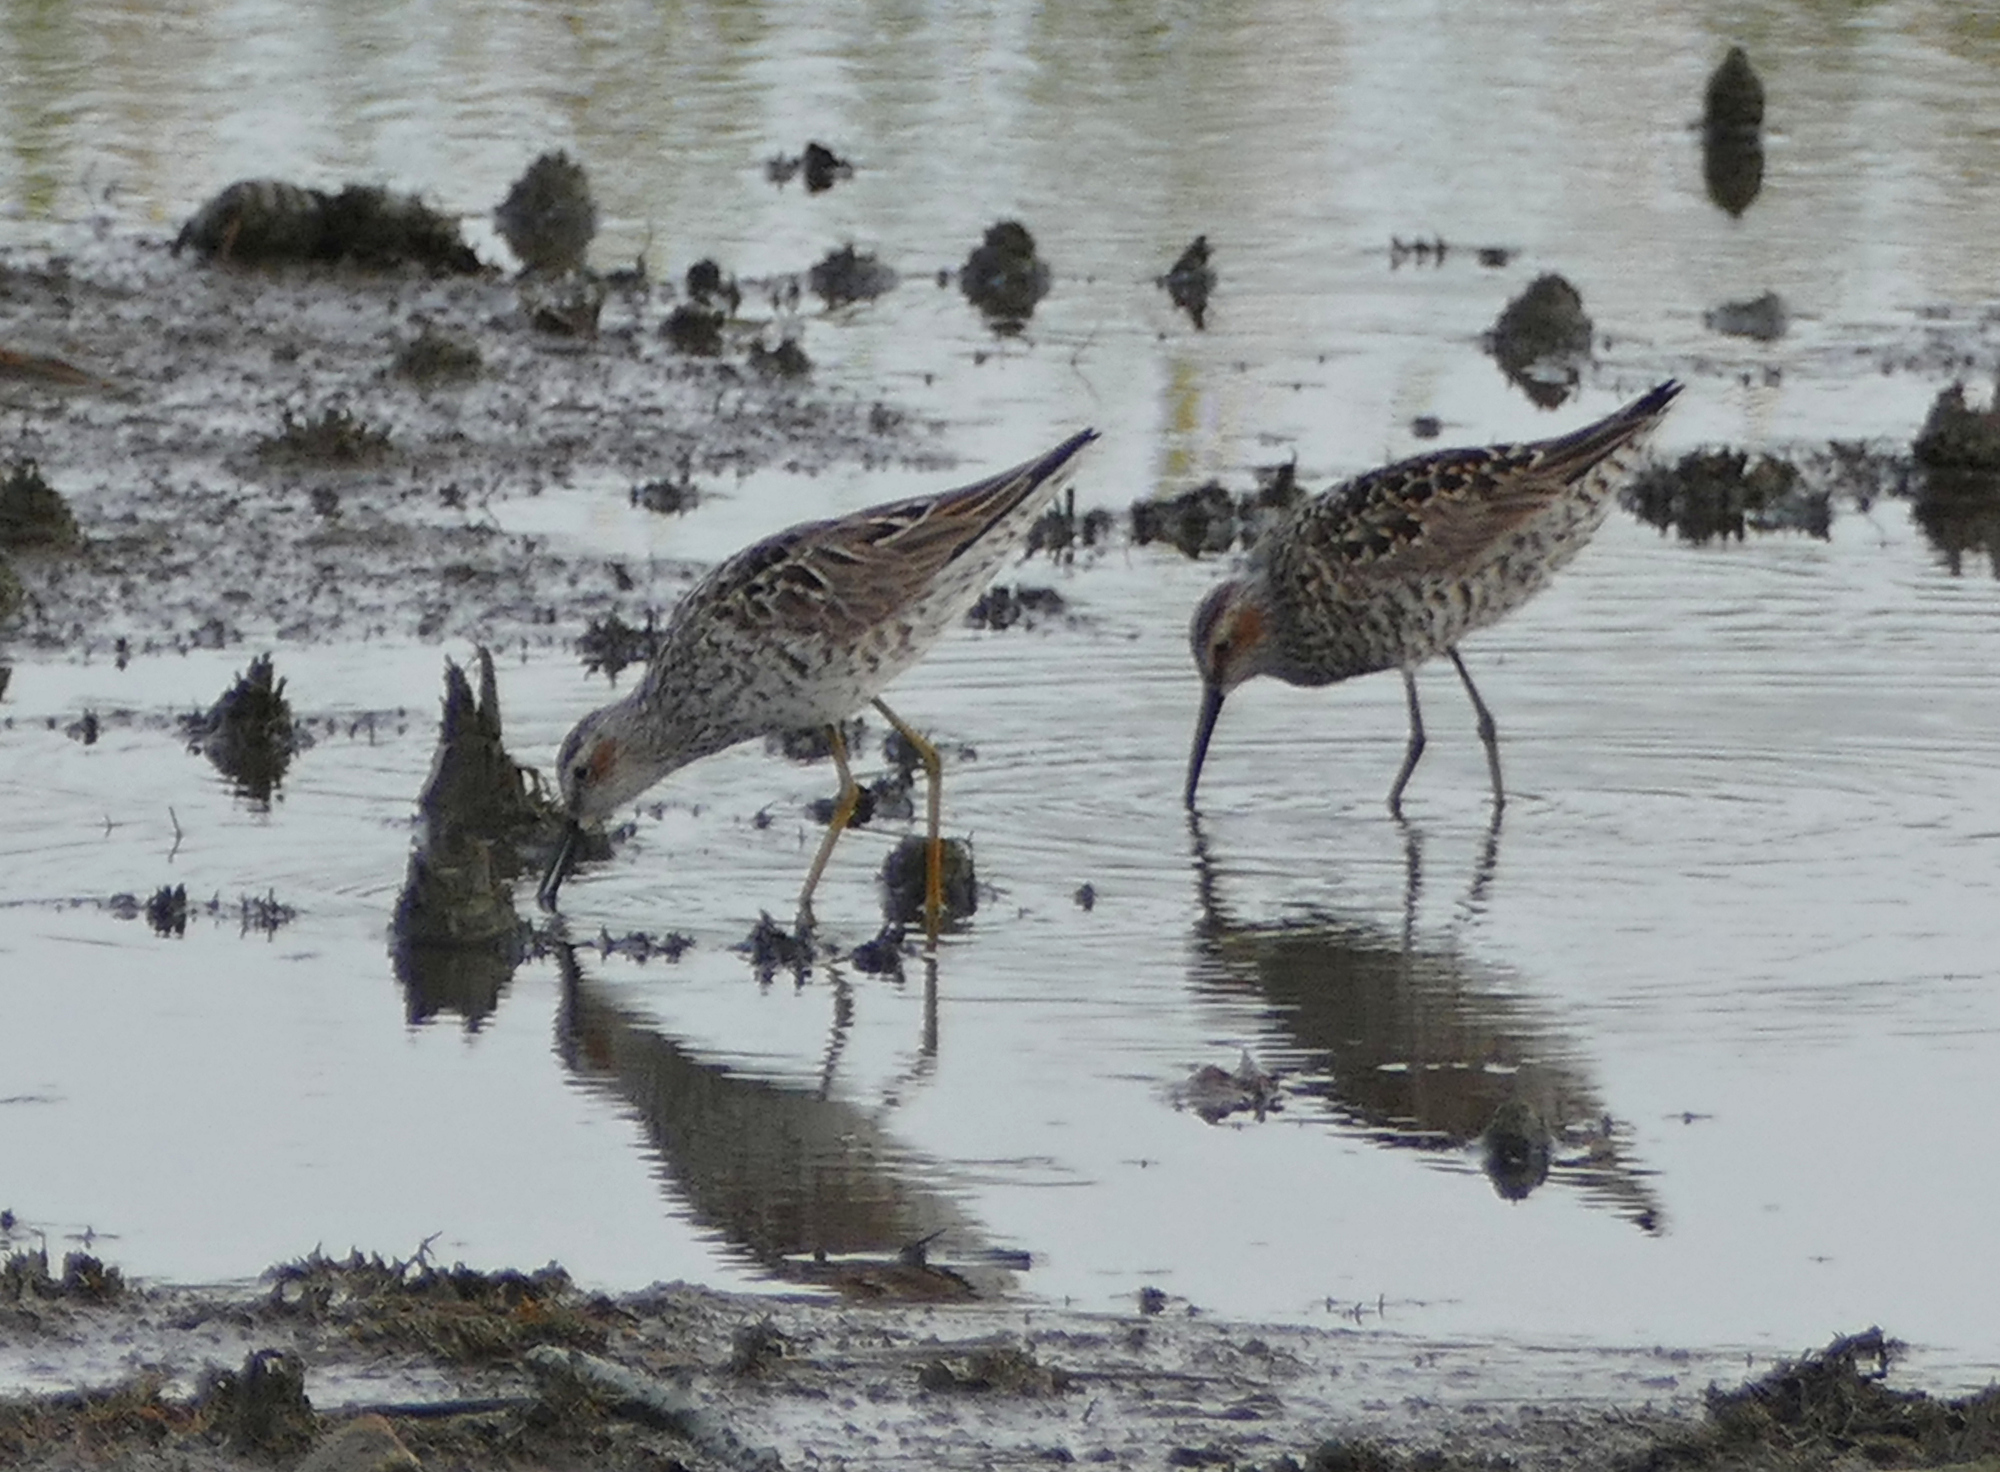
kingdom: Animalia
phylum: Chordata
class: Aves
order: Charadriiformes
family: Scolopacidae
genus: Calidris
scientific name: Calidris himantopus
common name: Stilt sandpiper
